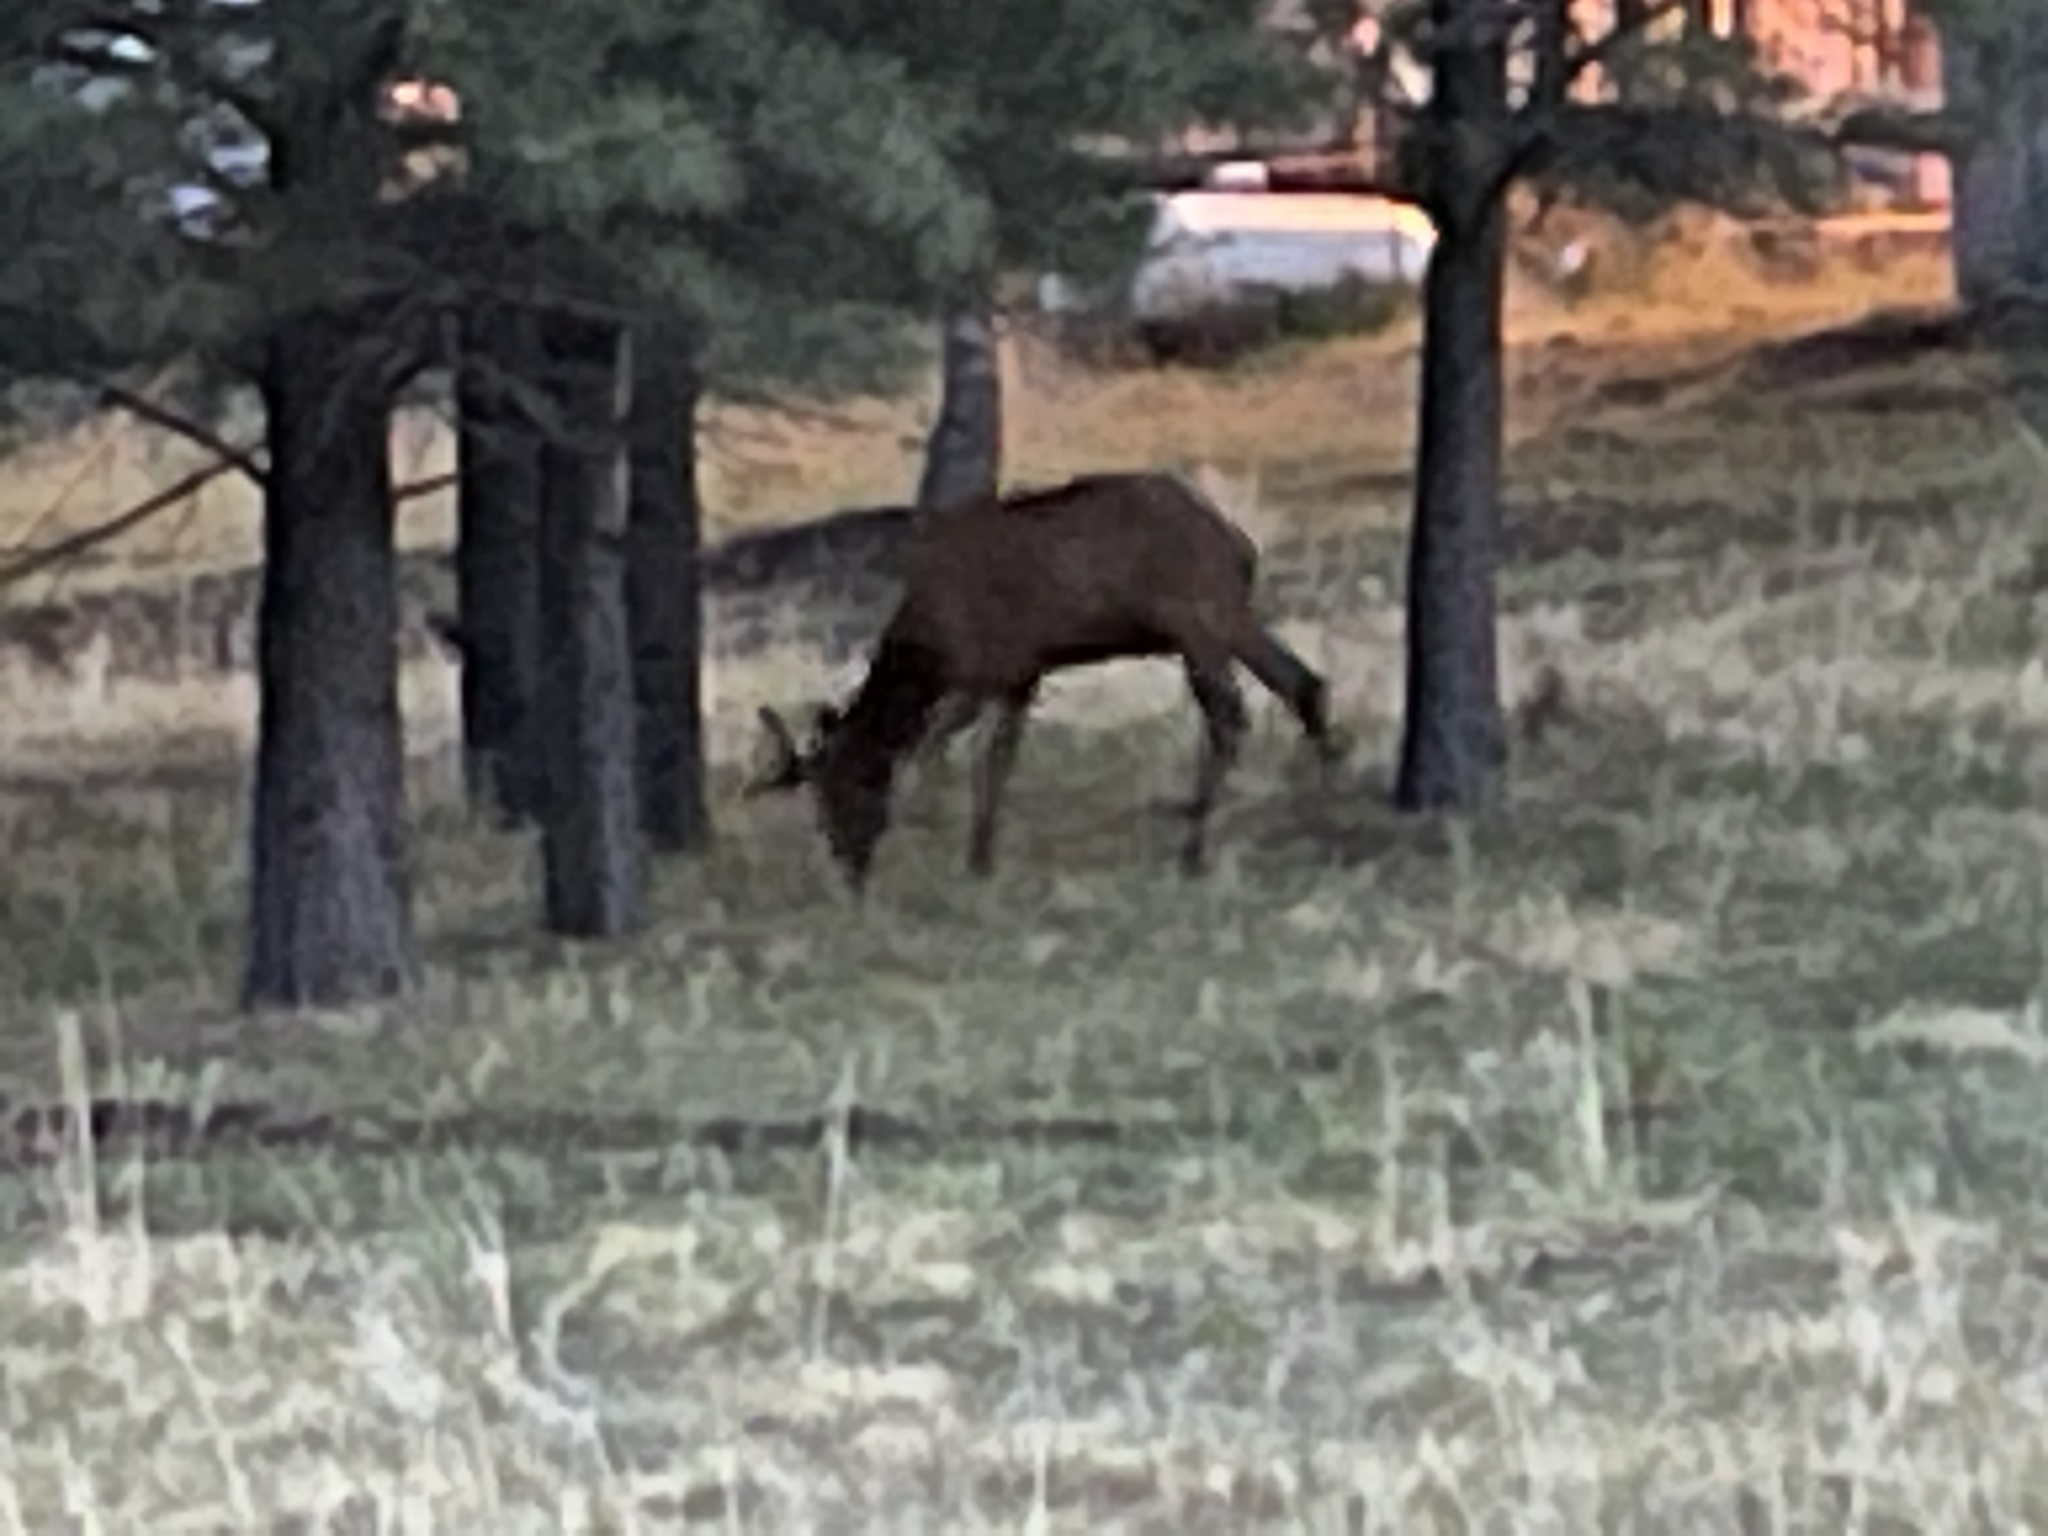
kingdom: Animalia
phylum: Chordata
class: Mammalia
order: Artiodactyla
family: Cervidae
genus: Cervus
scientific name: Cervus elaphus
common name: Red deer
